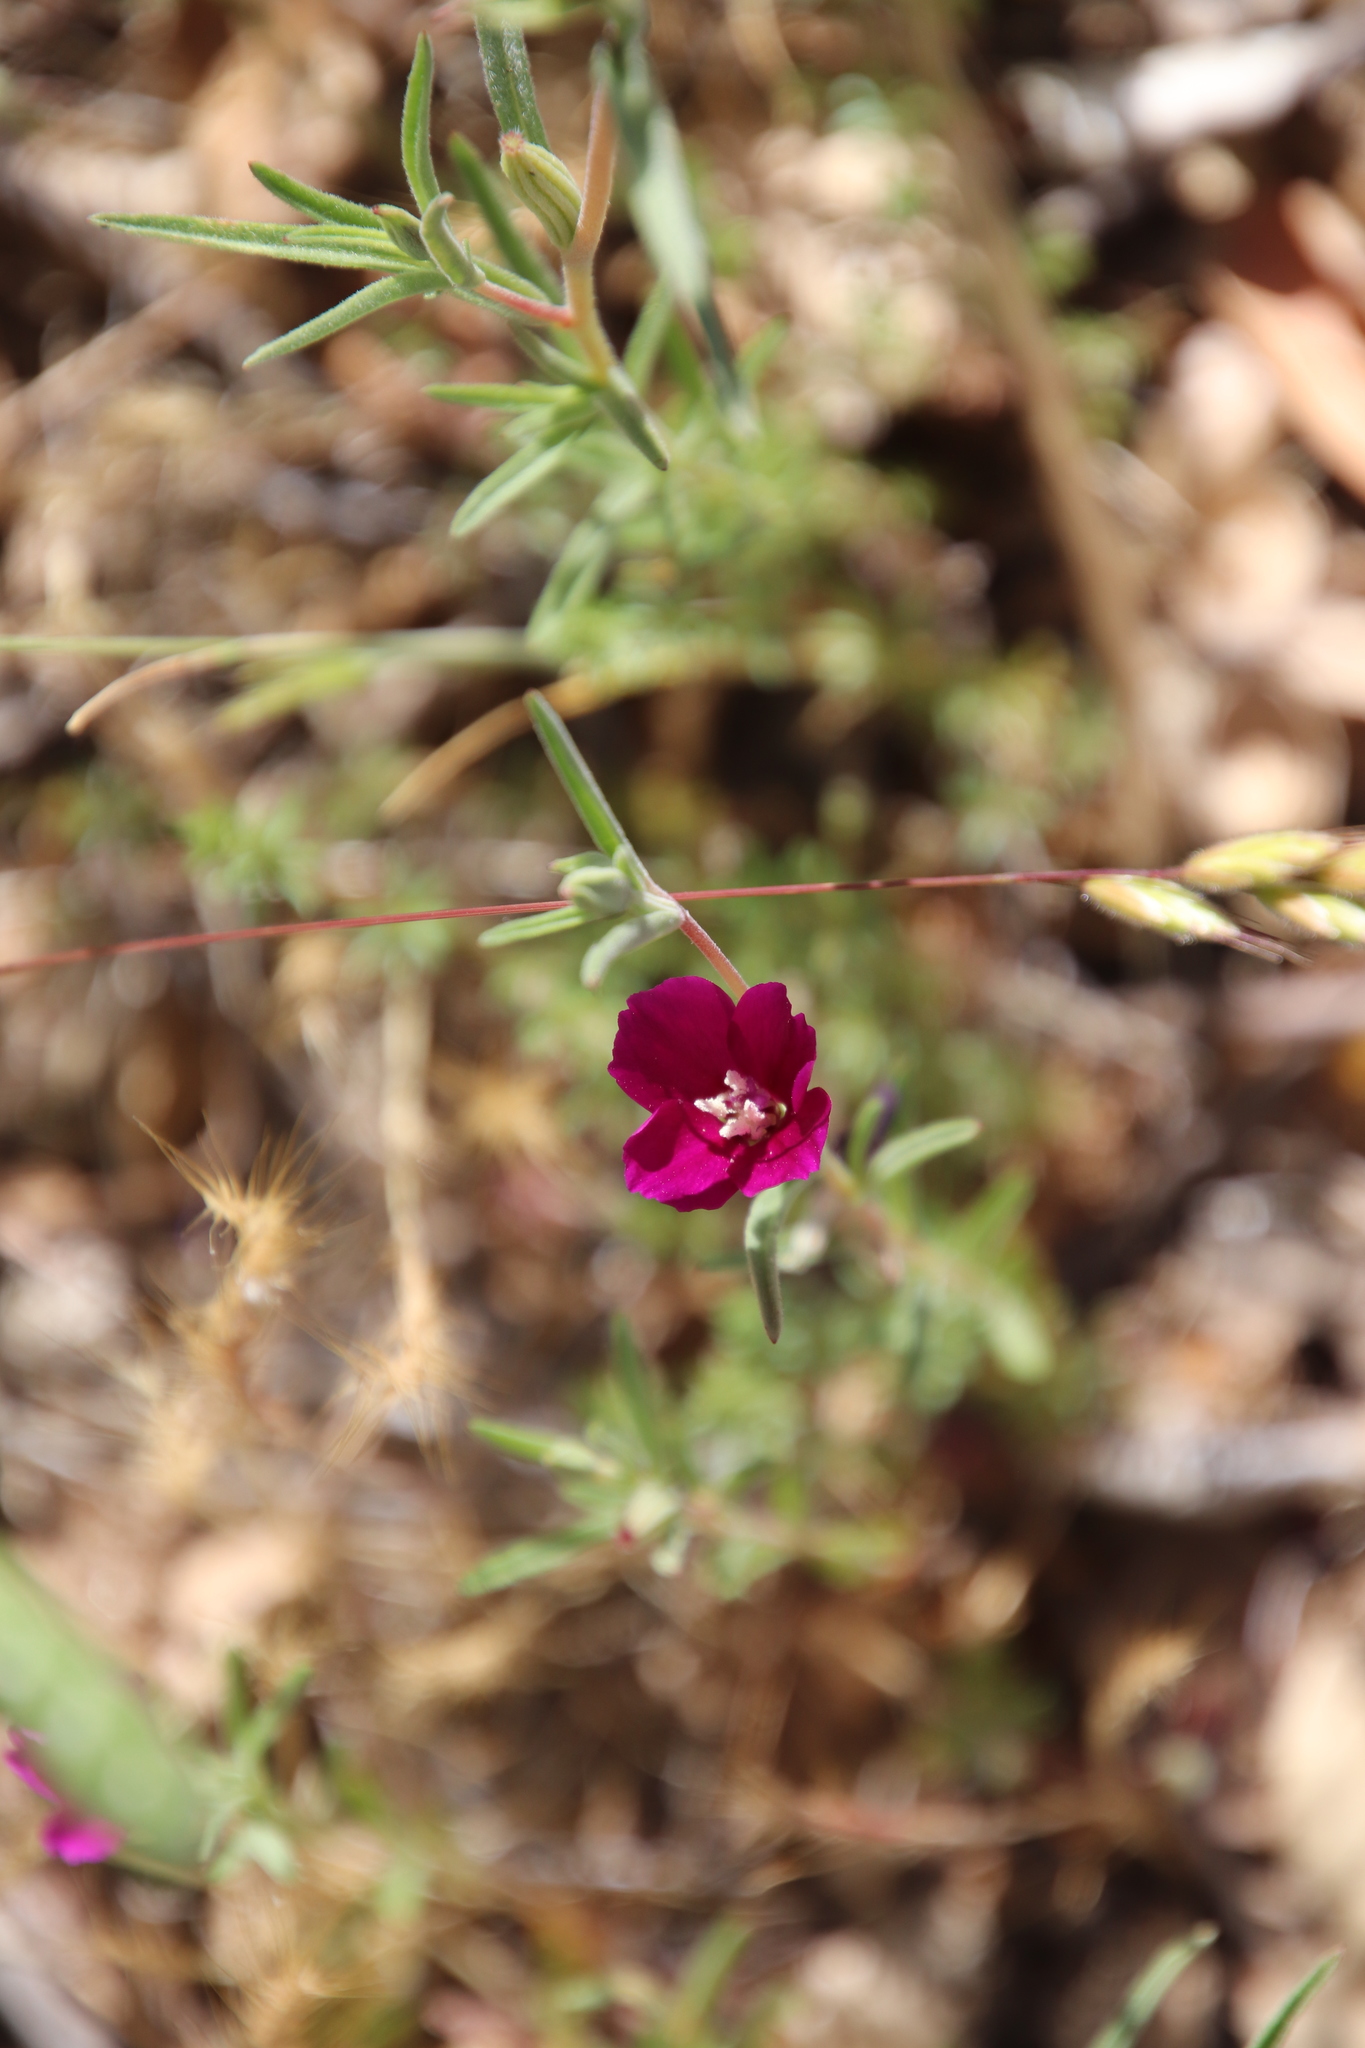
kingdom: Plantae
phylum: Tracheophyta
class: Magnoliopsida
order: Myrtales
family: Onagraceae
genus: Clarkia
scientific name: Clarkia purpurea
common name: Purple clarkia
